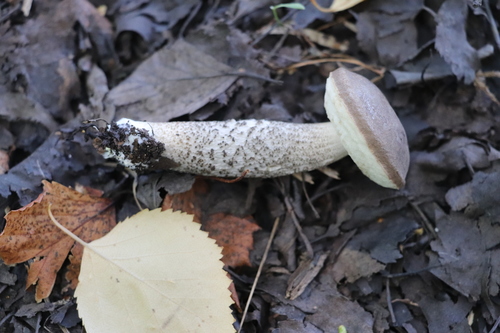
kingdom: Fungi
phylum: Basidiomycota
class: Agaricomycetes
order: Boletales
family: Boletaceae
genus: Leccinum
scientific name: Leccinum scabrum
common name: Blushing bolete
